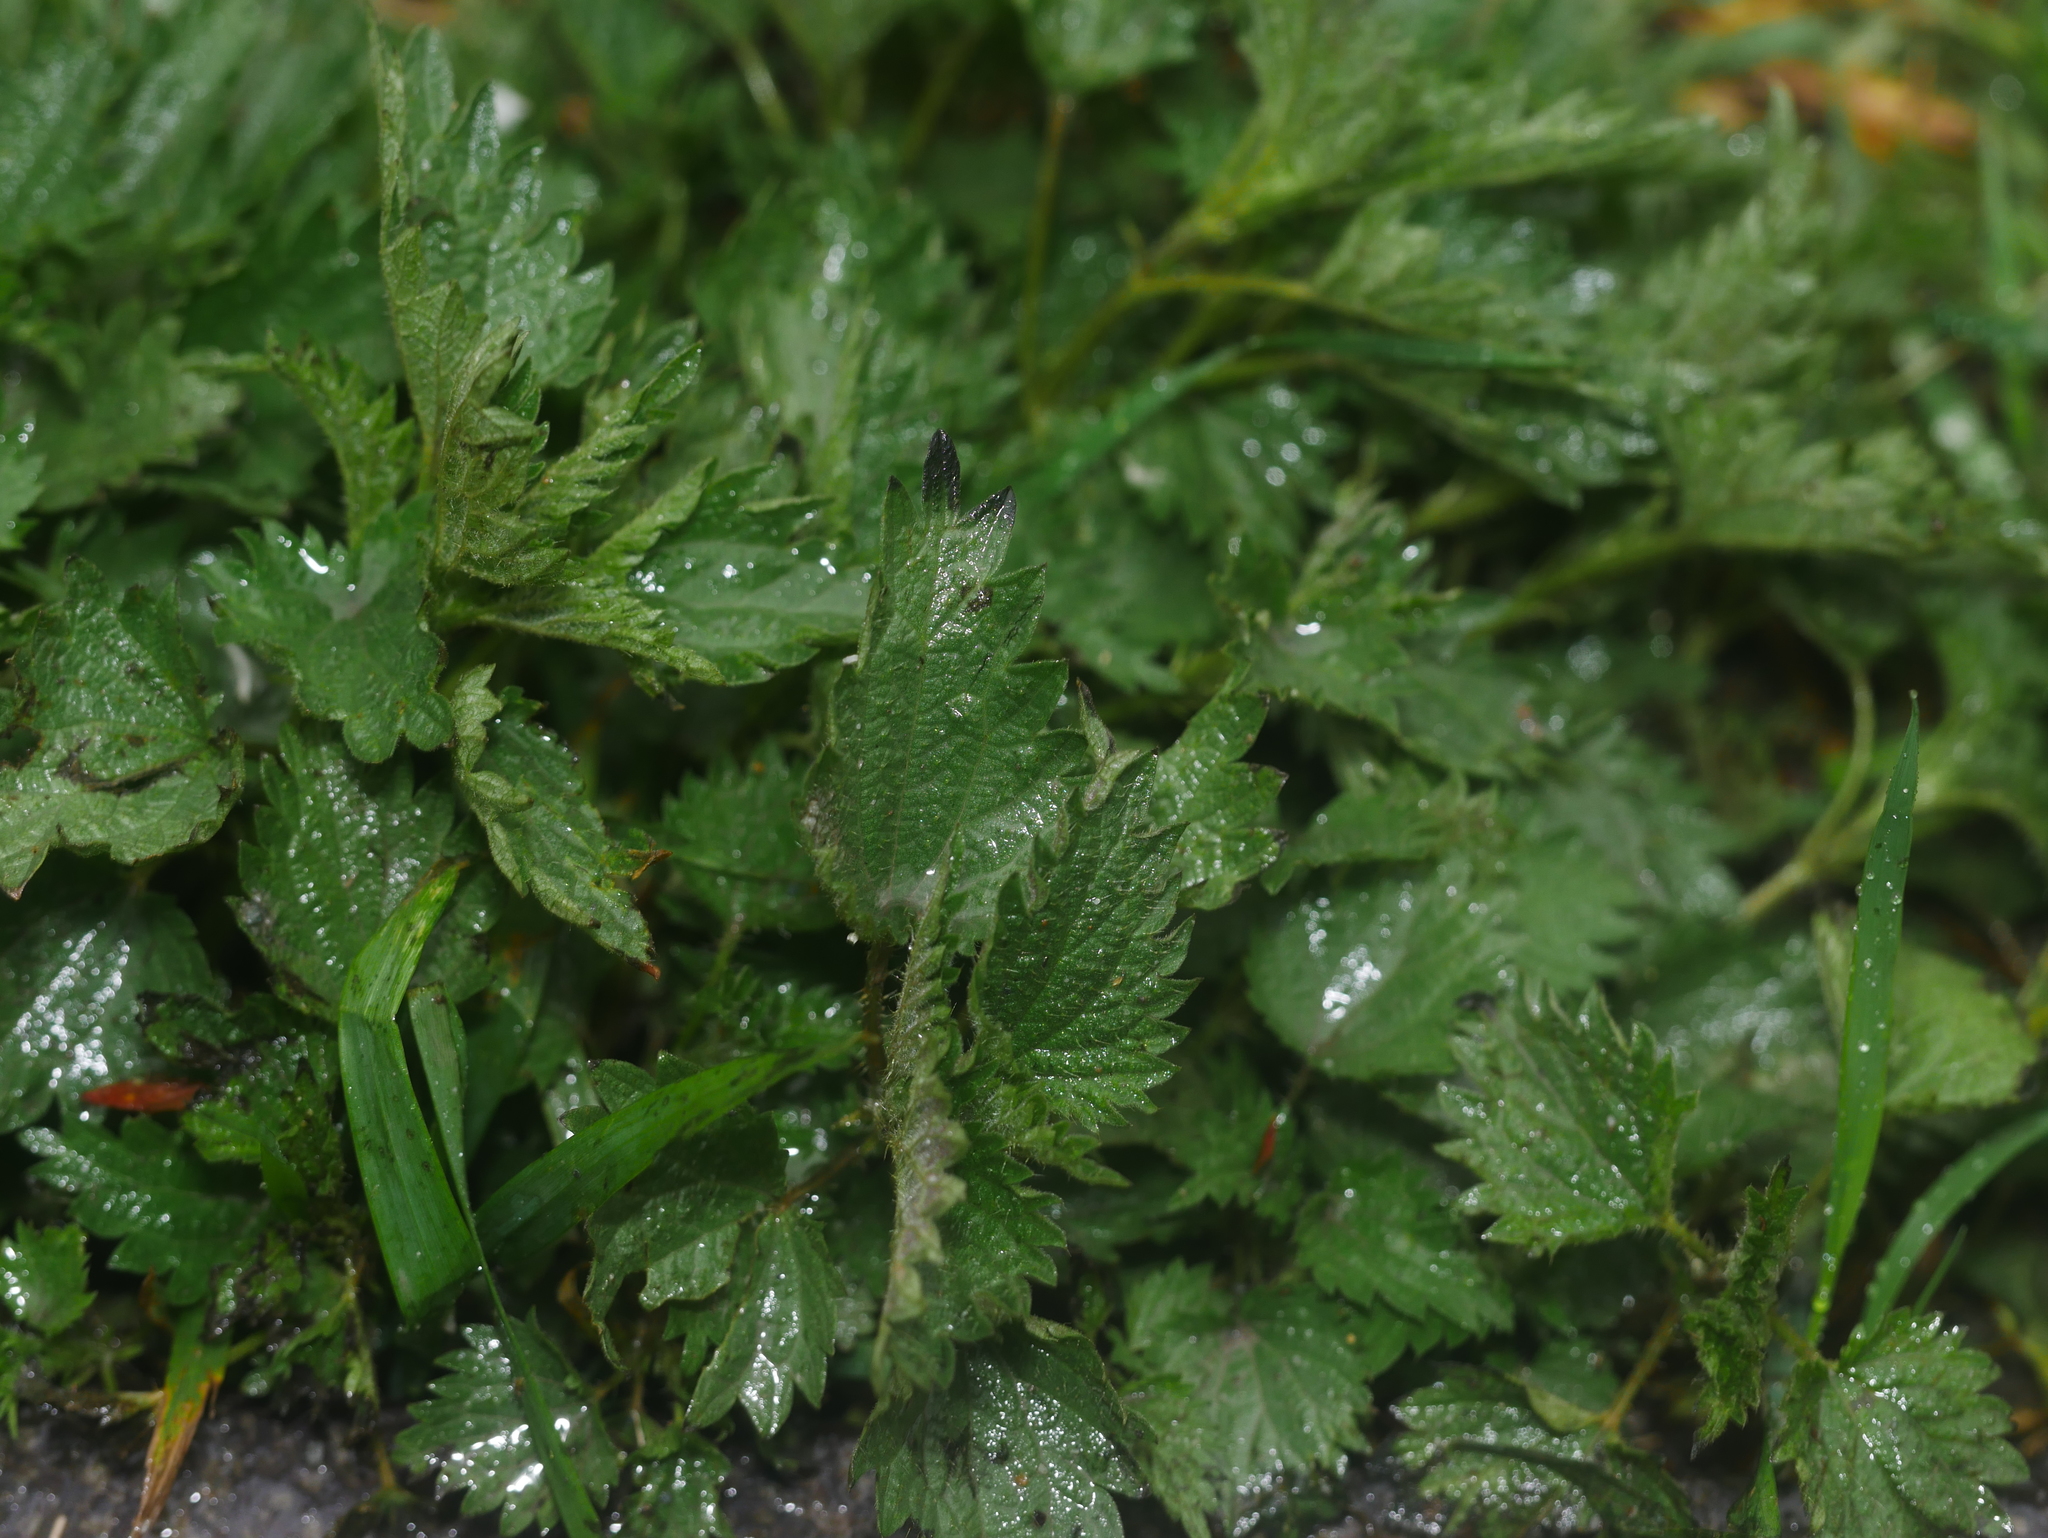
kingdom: Plantae
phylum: Tracheophyta
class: Magnoliopsida
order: Rosales
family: Urticaceae
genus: Urtica
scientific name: Urtica dioica
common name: Common nettle
